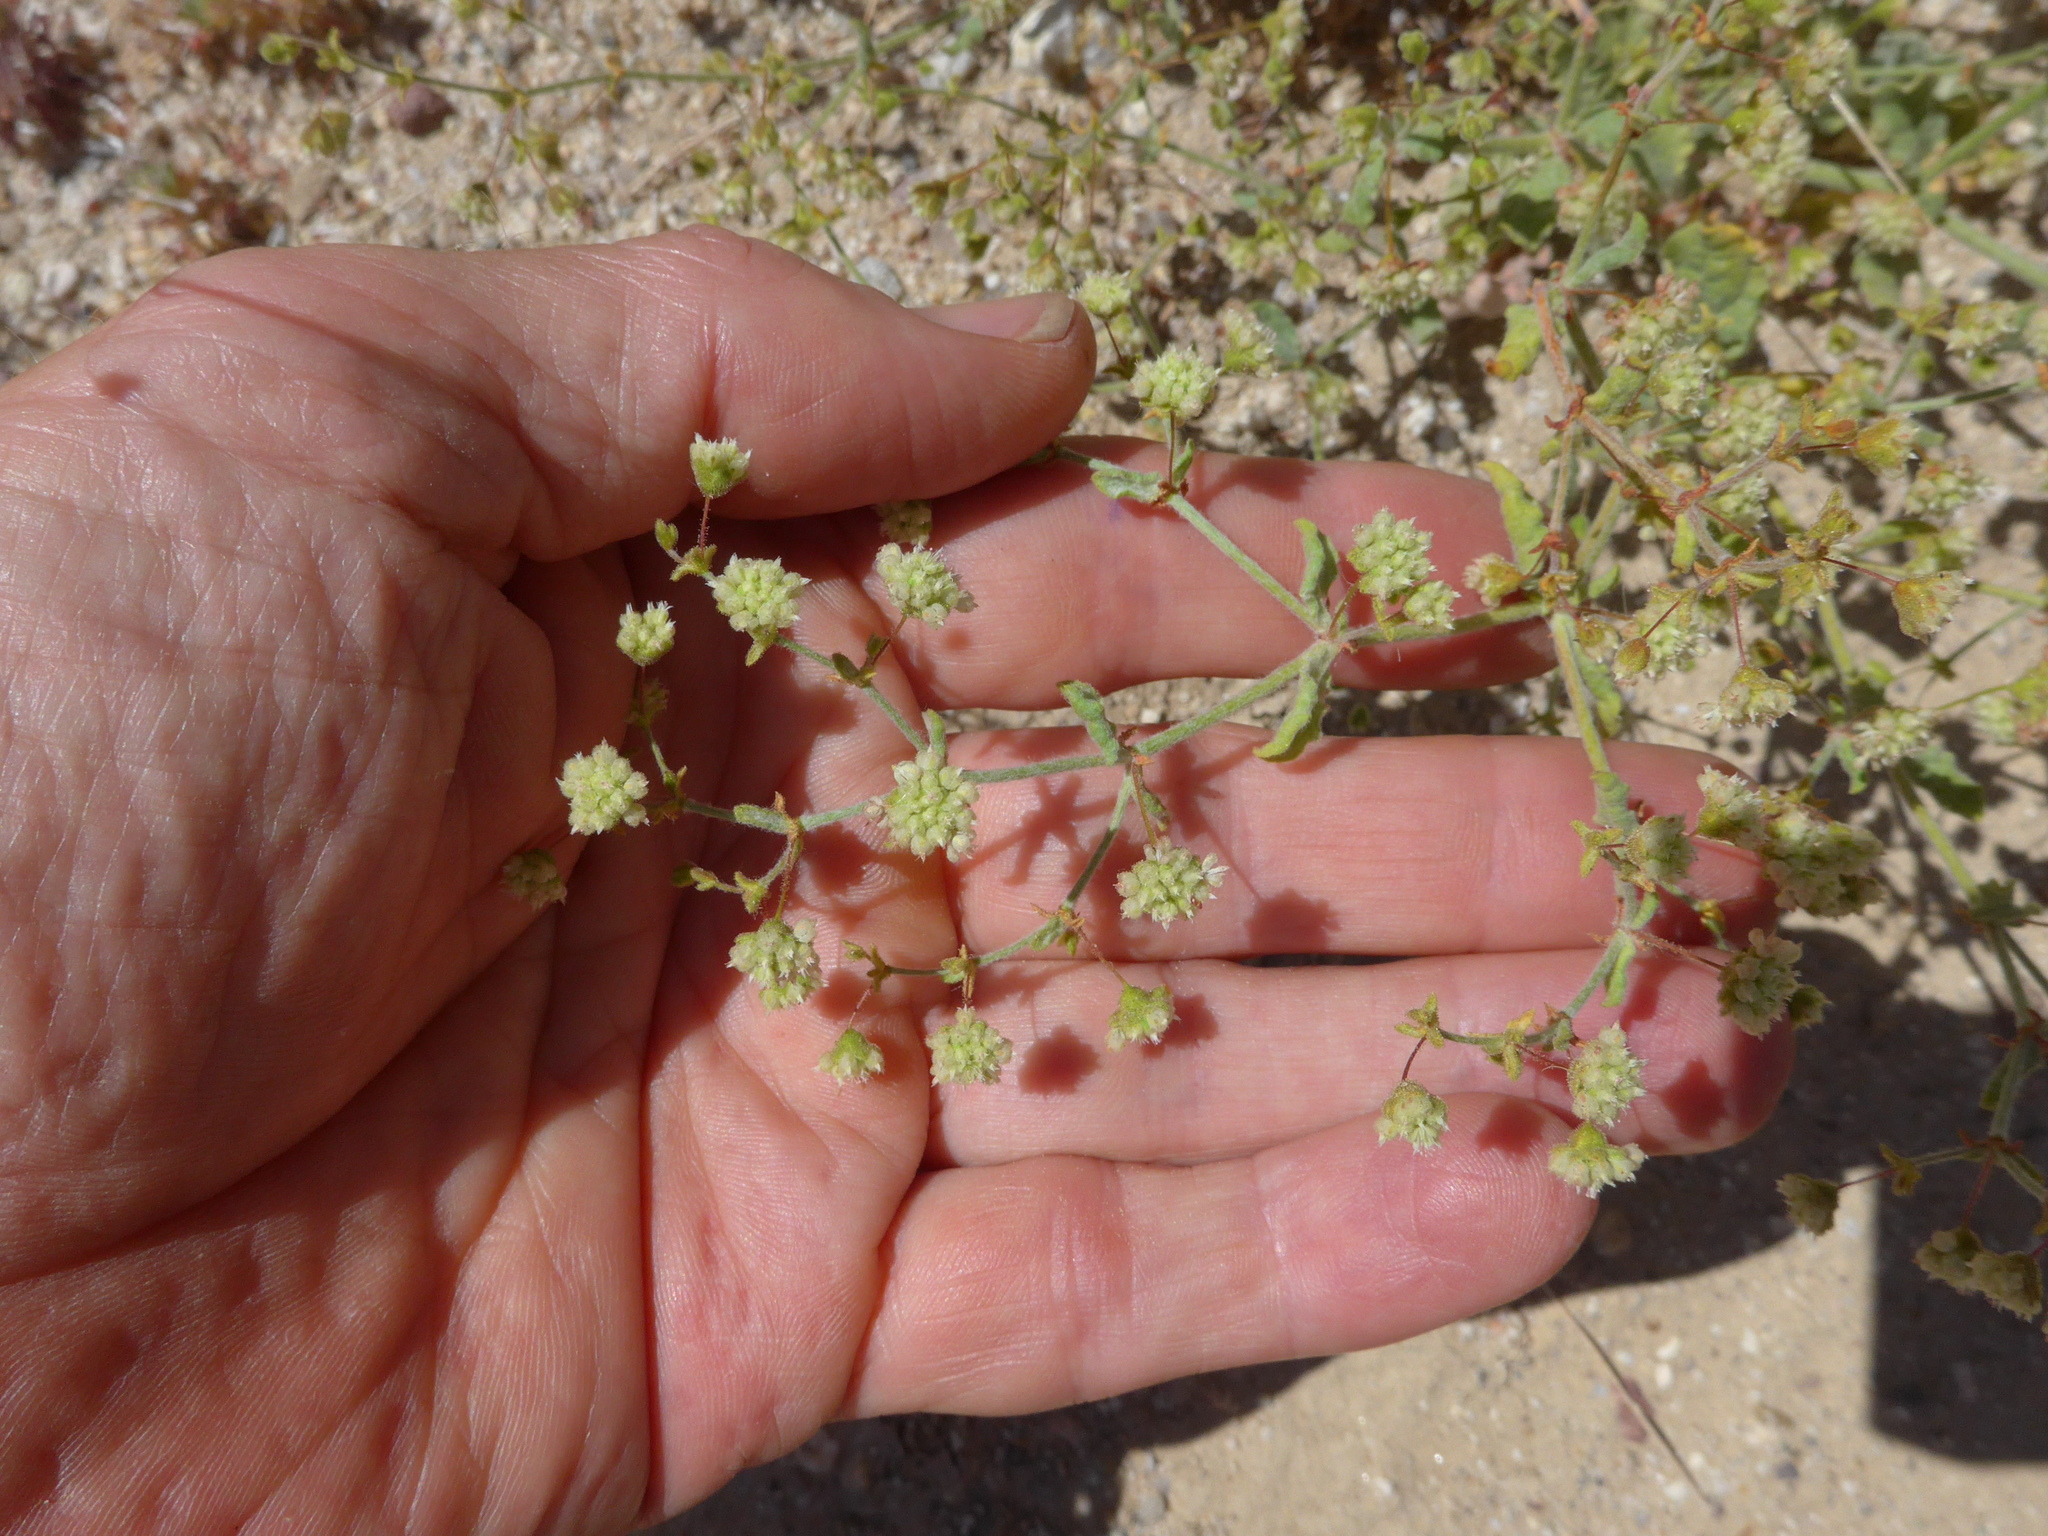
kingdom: Plantae
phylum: Tracheophyta
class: Magnoliopsida
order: Caryophyllales
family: Polygonaceae
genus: Eriogonum
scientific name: Eriogonum viridescens
